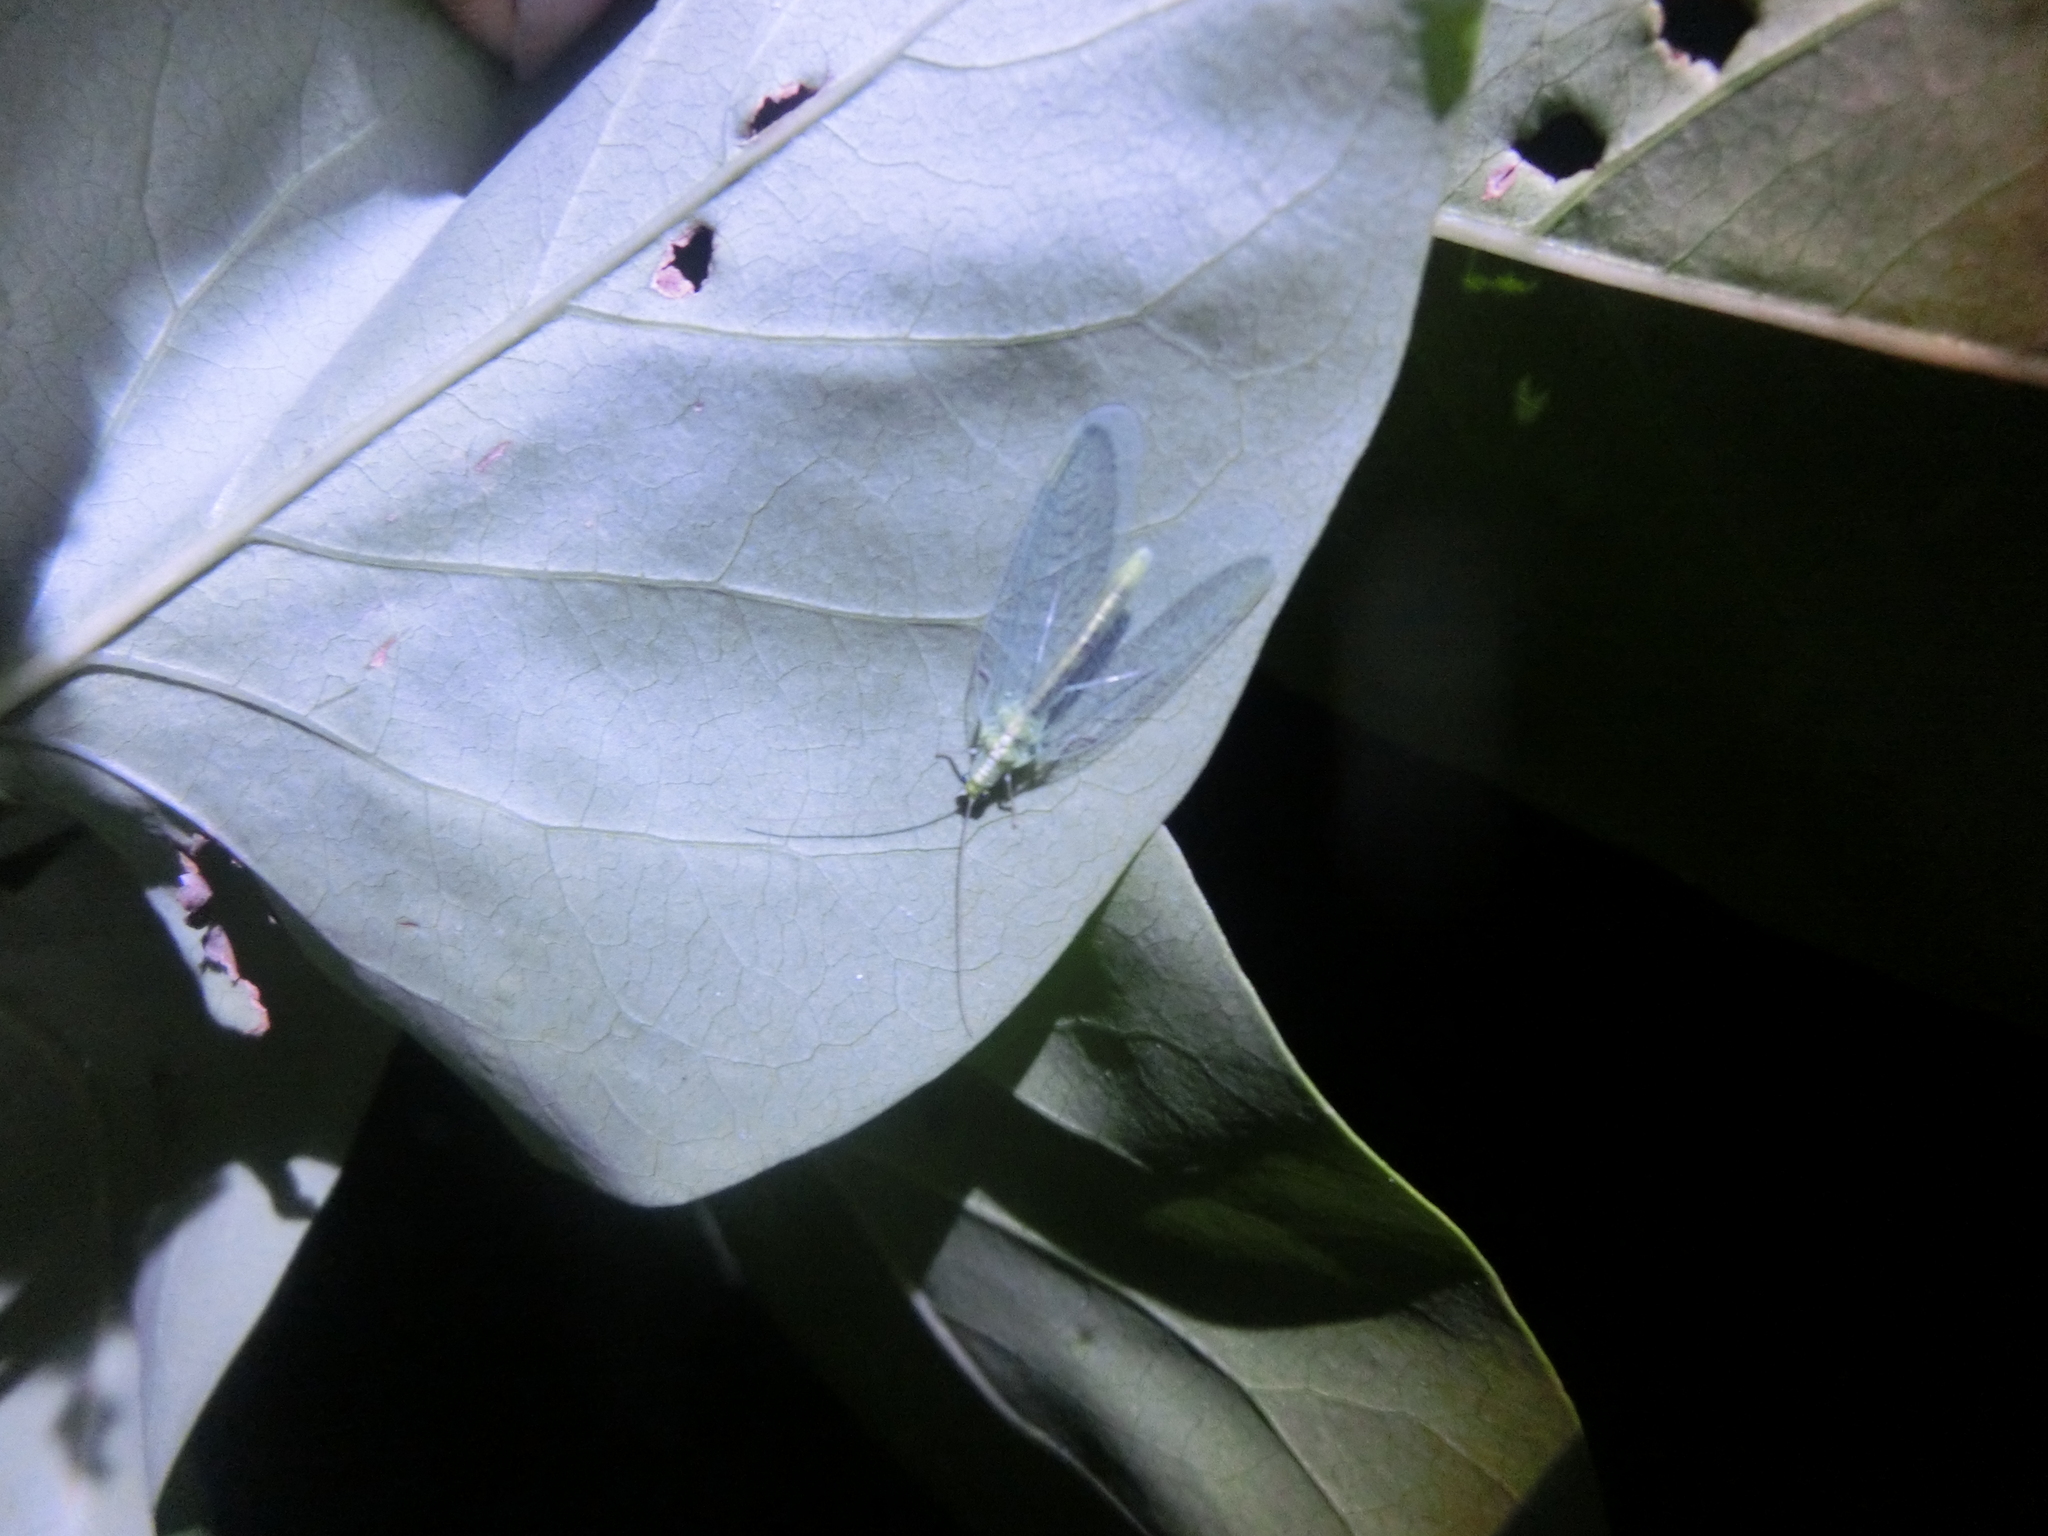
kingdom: Animalia
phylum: Arthropoda
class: Insecta
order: Neuroptera
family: Chrysopidae
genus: Chrysoperla
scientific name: Chrysoperla
